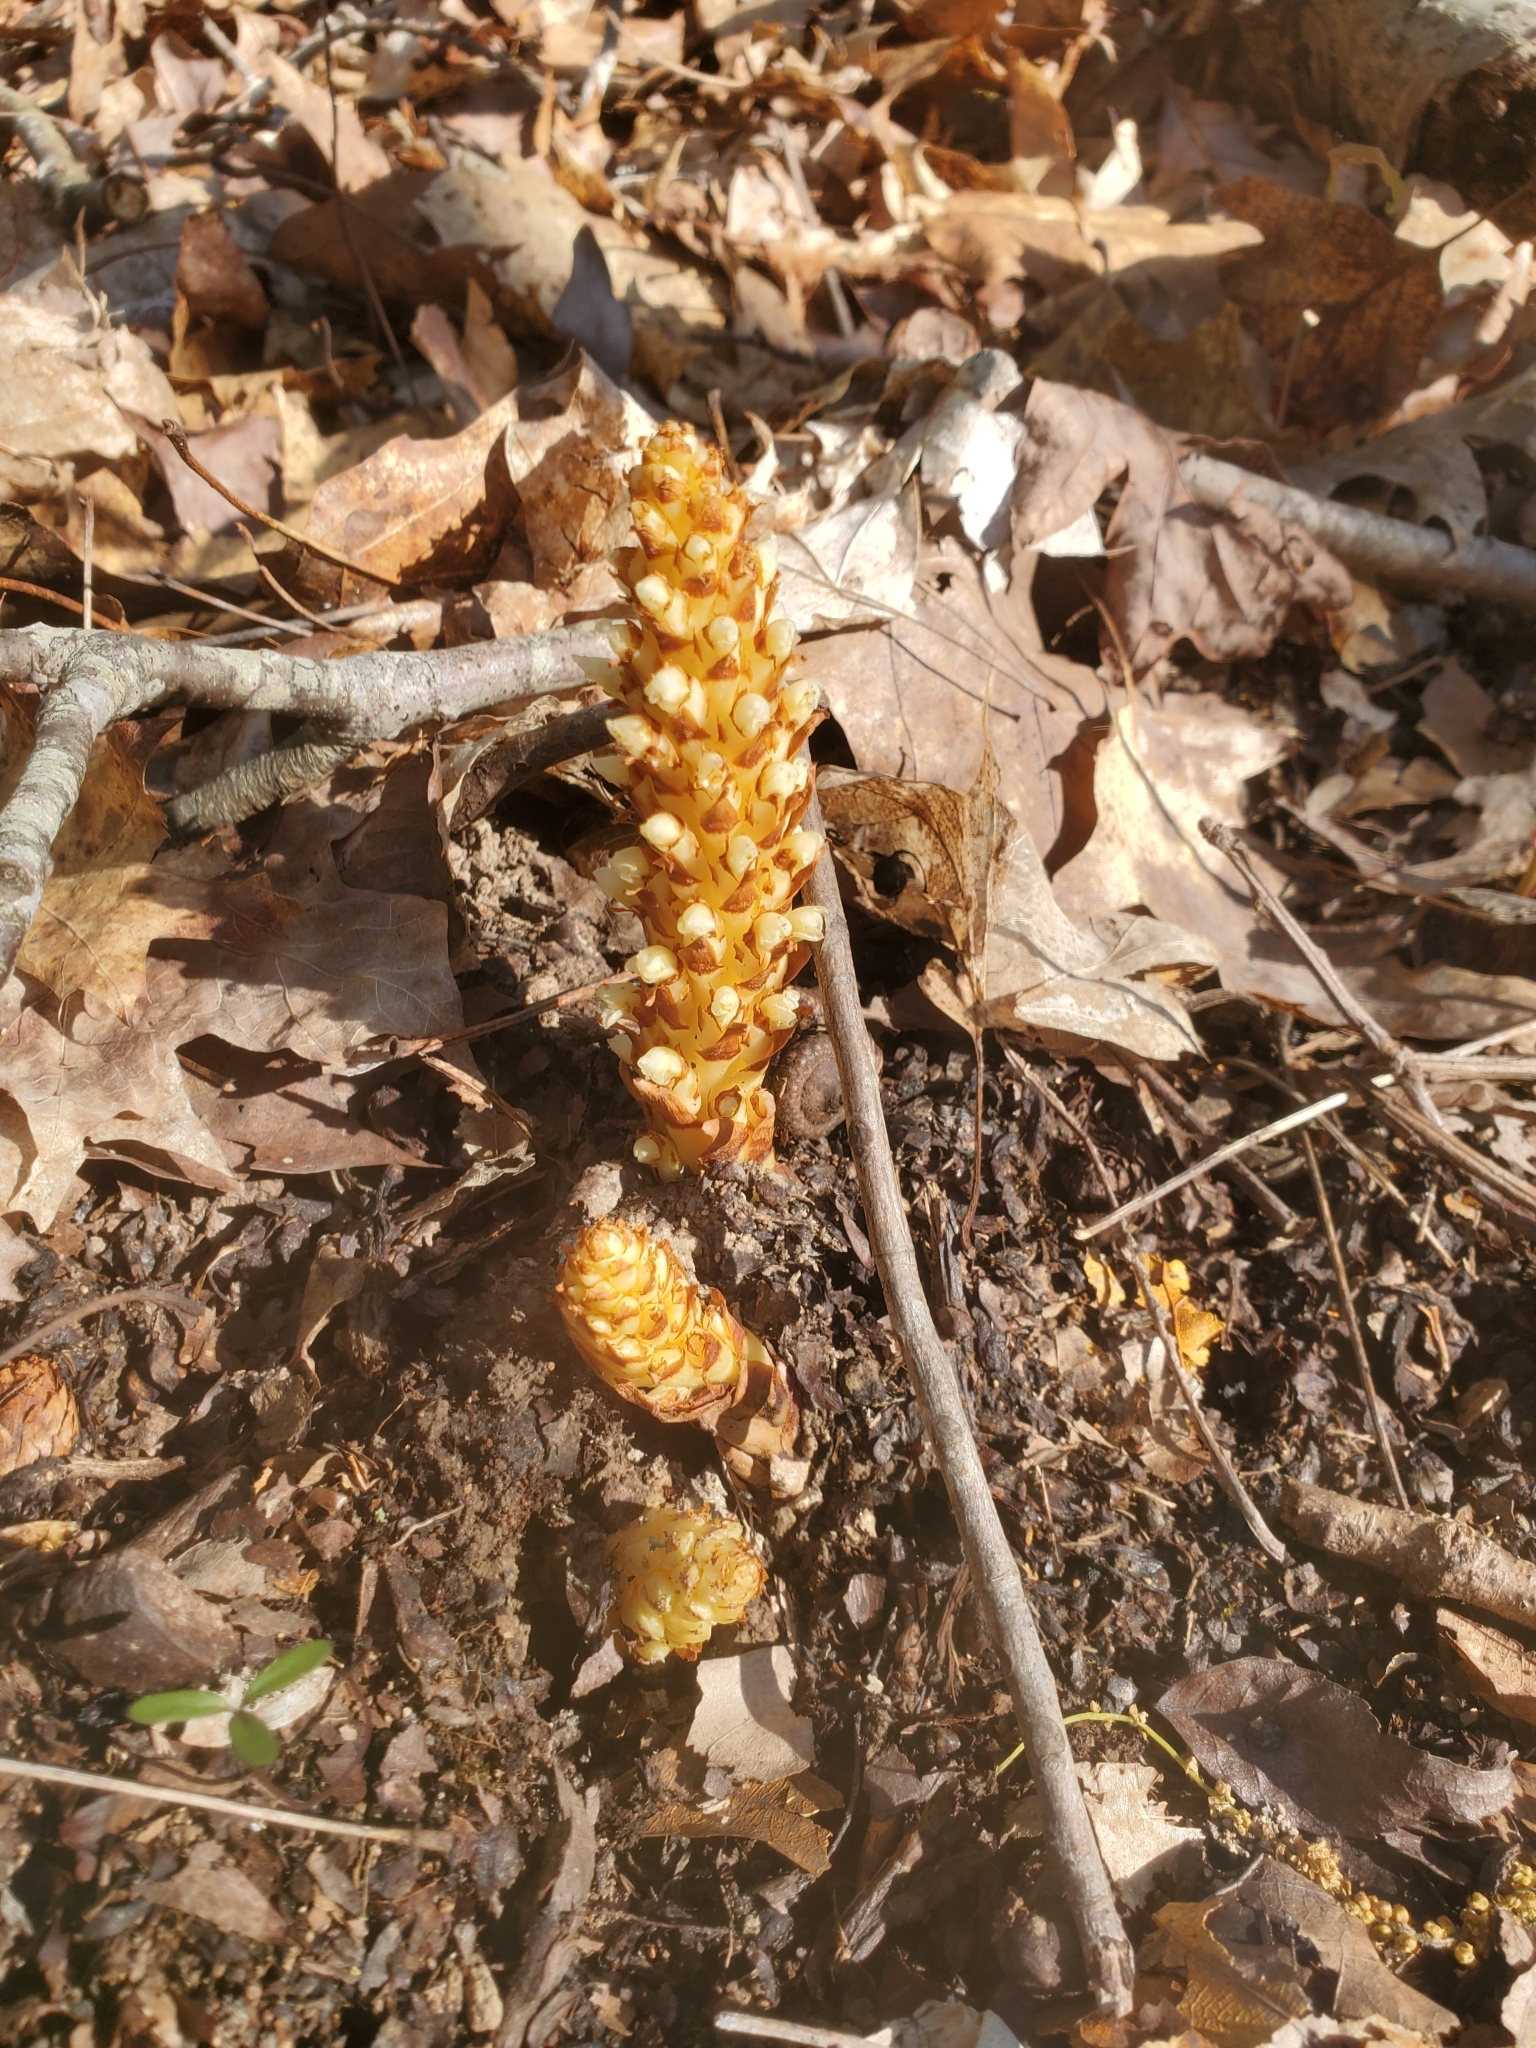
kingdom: Plantae
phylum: Tracheophyta
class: Magnoliopsida
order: Lamiales
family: Orobanchaceae
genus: Conopholis
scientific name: Conopholis americana
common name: American cancer-root
